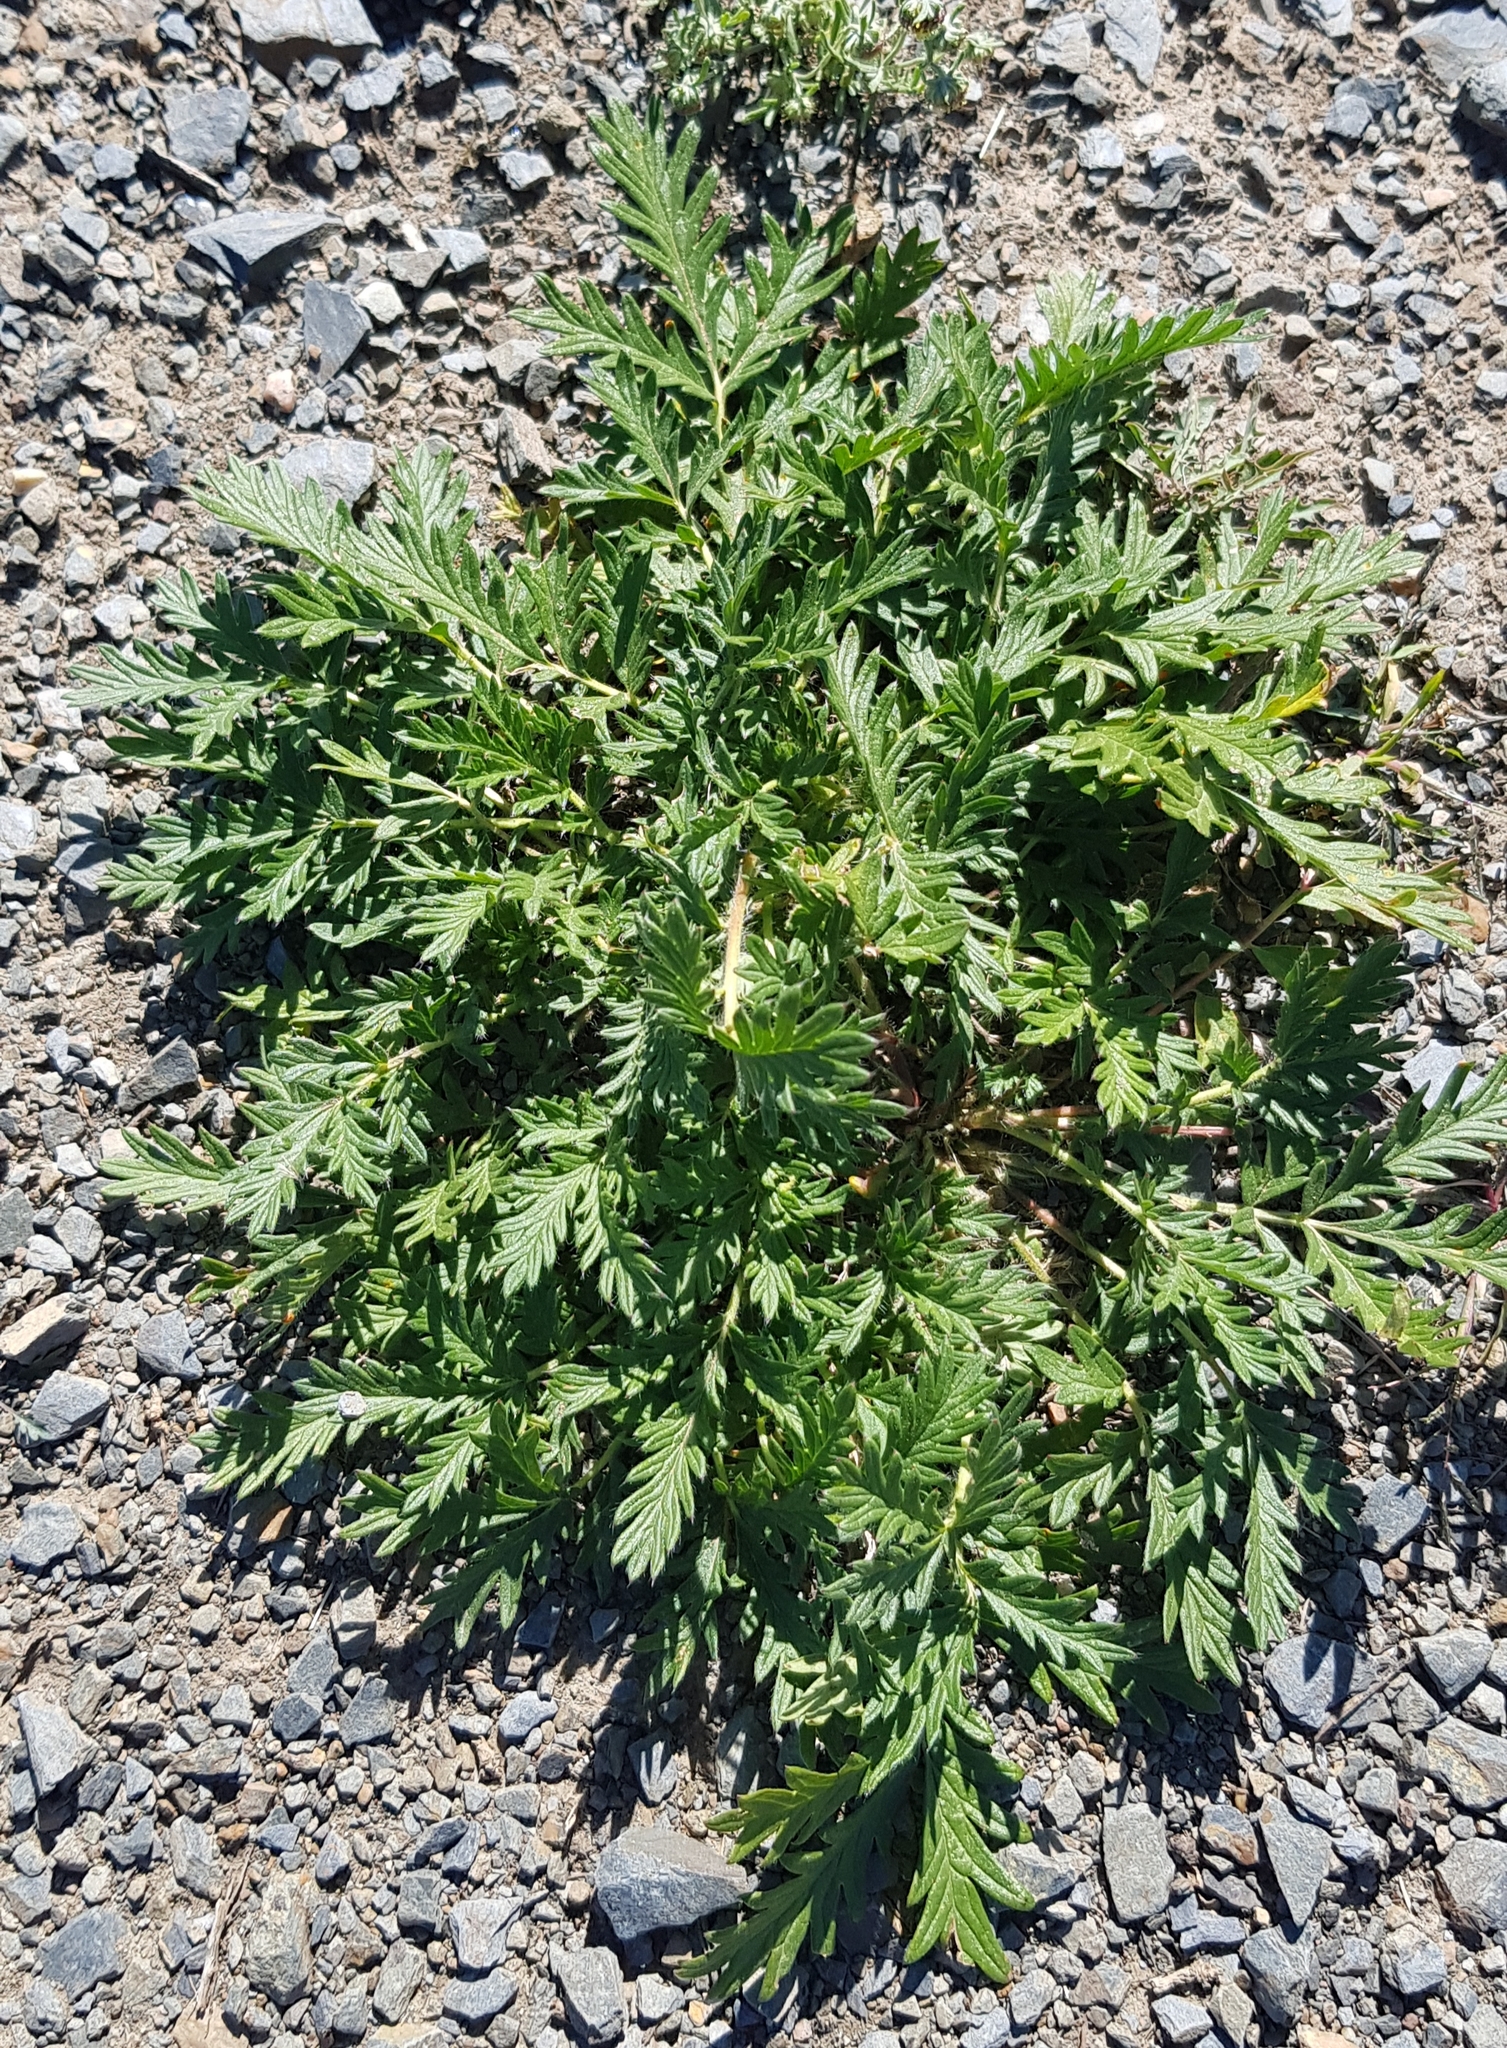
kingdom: Plantae
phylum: Tracheophyta
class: Magnoliopsida
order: Rosales
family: Rosaceae
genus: Potentilla
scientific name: Potentilla tergemina
